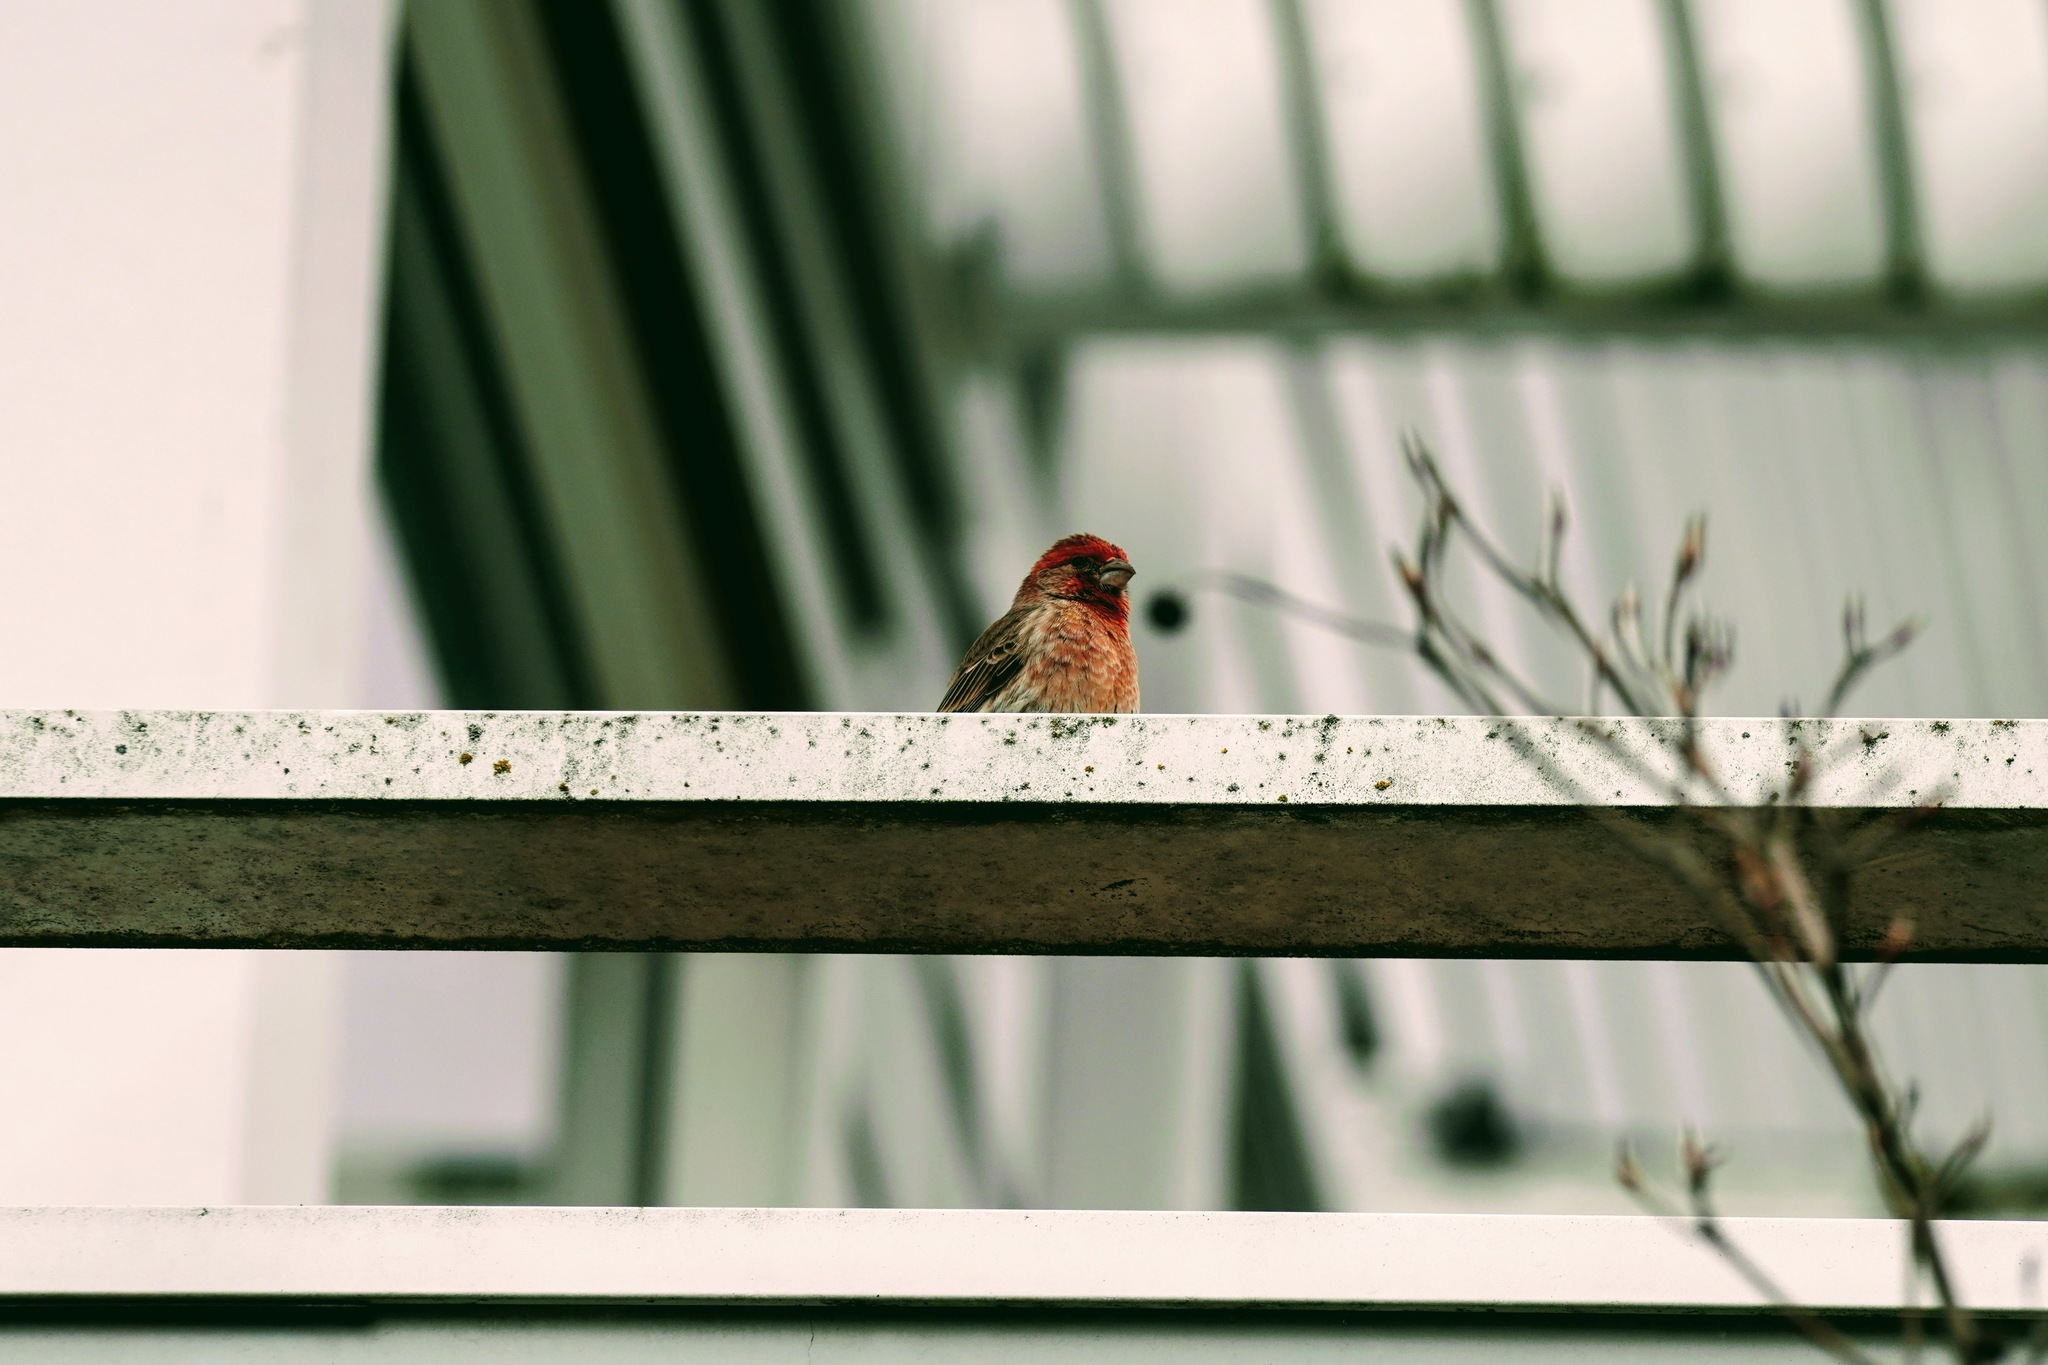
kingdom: Animalia
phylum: Chordata
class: Aves
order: Passeriformes
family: Fringillidae
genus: Haemorhous
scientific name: Haemorhous mexicanus
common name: House finch
